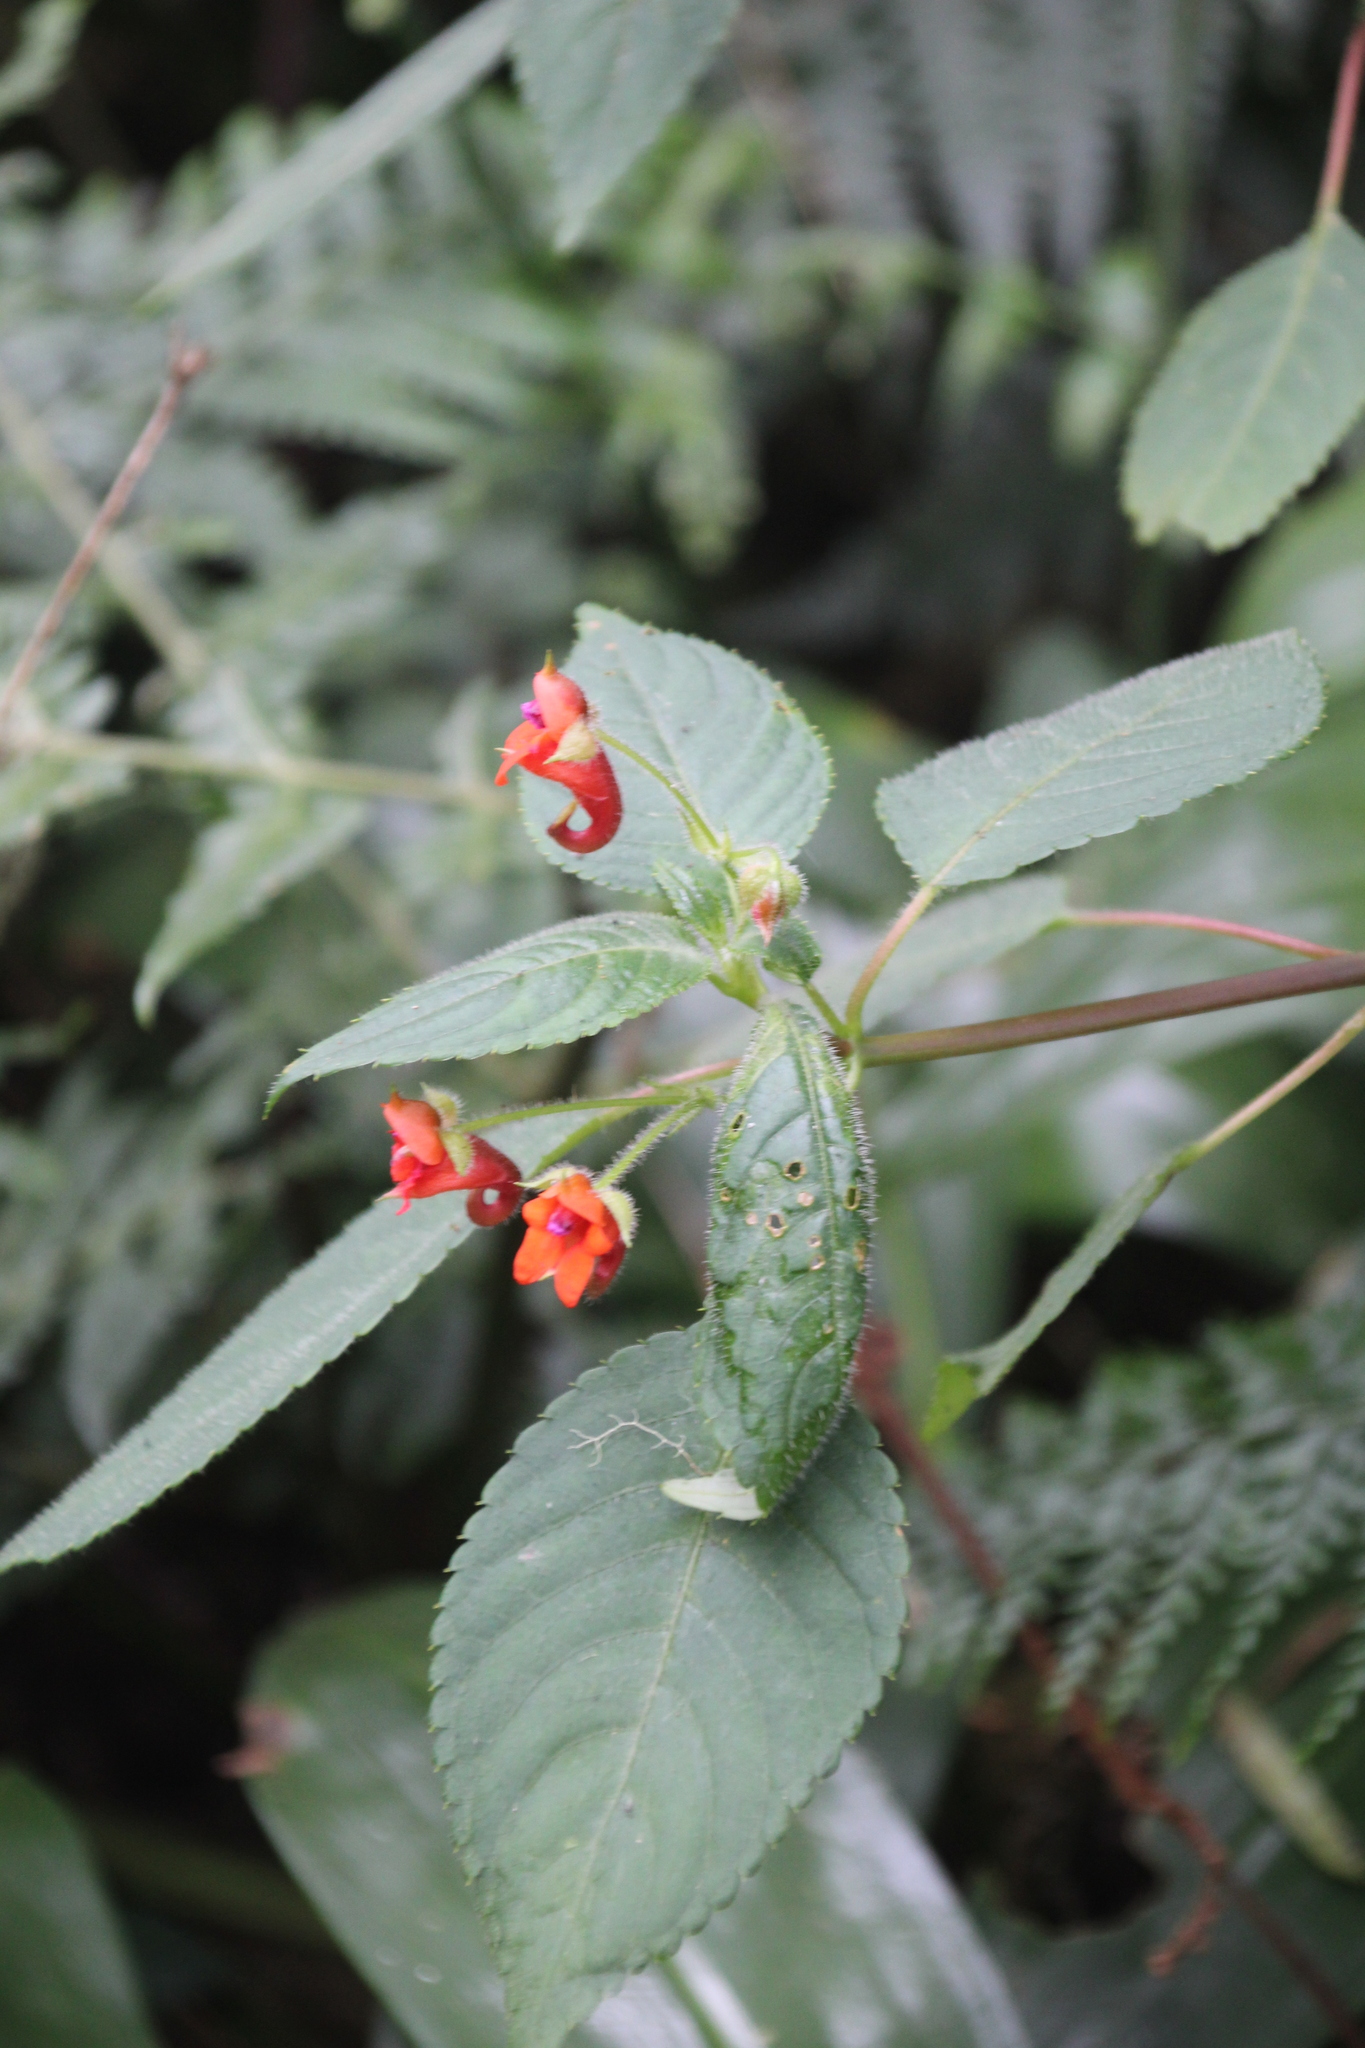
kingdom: Plantae
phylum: Tracheophyta
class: Magnoliopsida
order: Ericales
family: Balsaminaceae
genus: Impatiens
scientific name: Impatiens runssorensis
